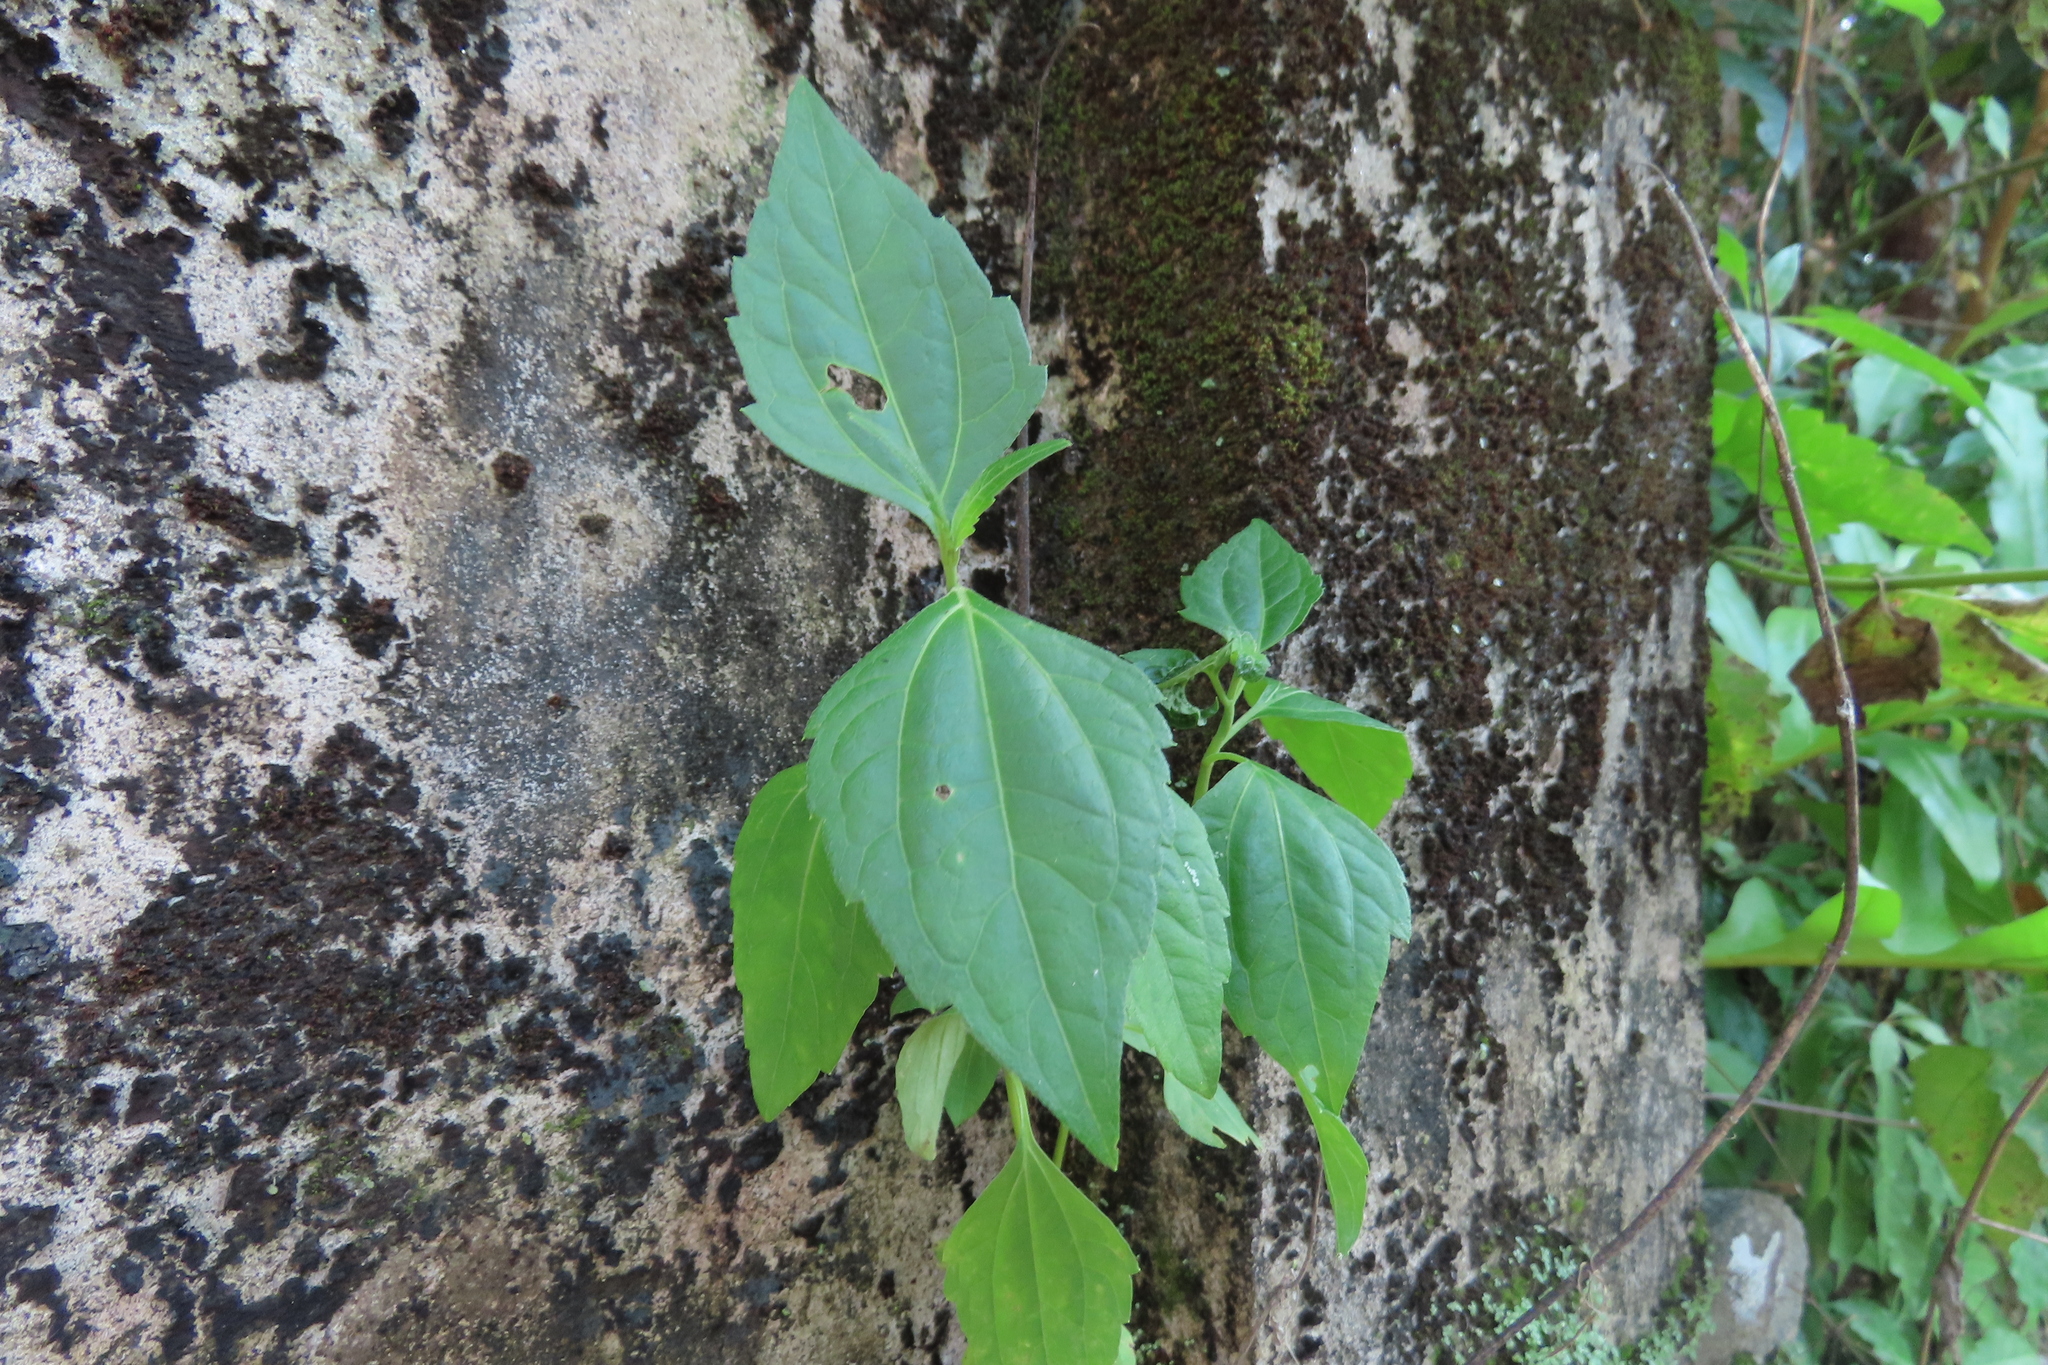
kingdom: Plantae
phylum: Tracheophyta
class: Magnoliopsida
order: Asterales
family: Asteraceae
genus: Chromolaena
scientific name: Chromolaena odorata
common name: Siamweed
